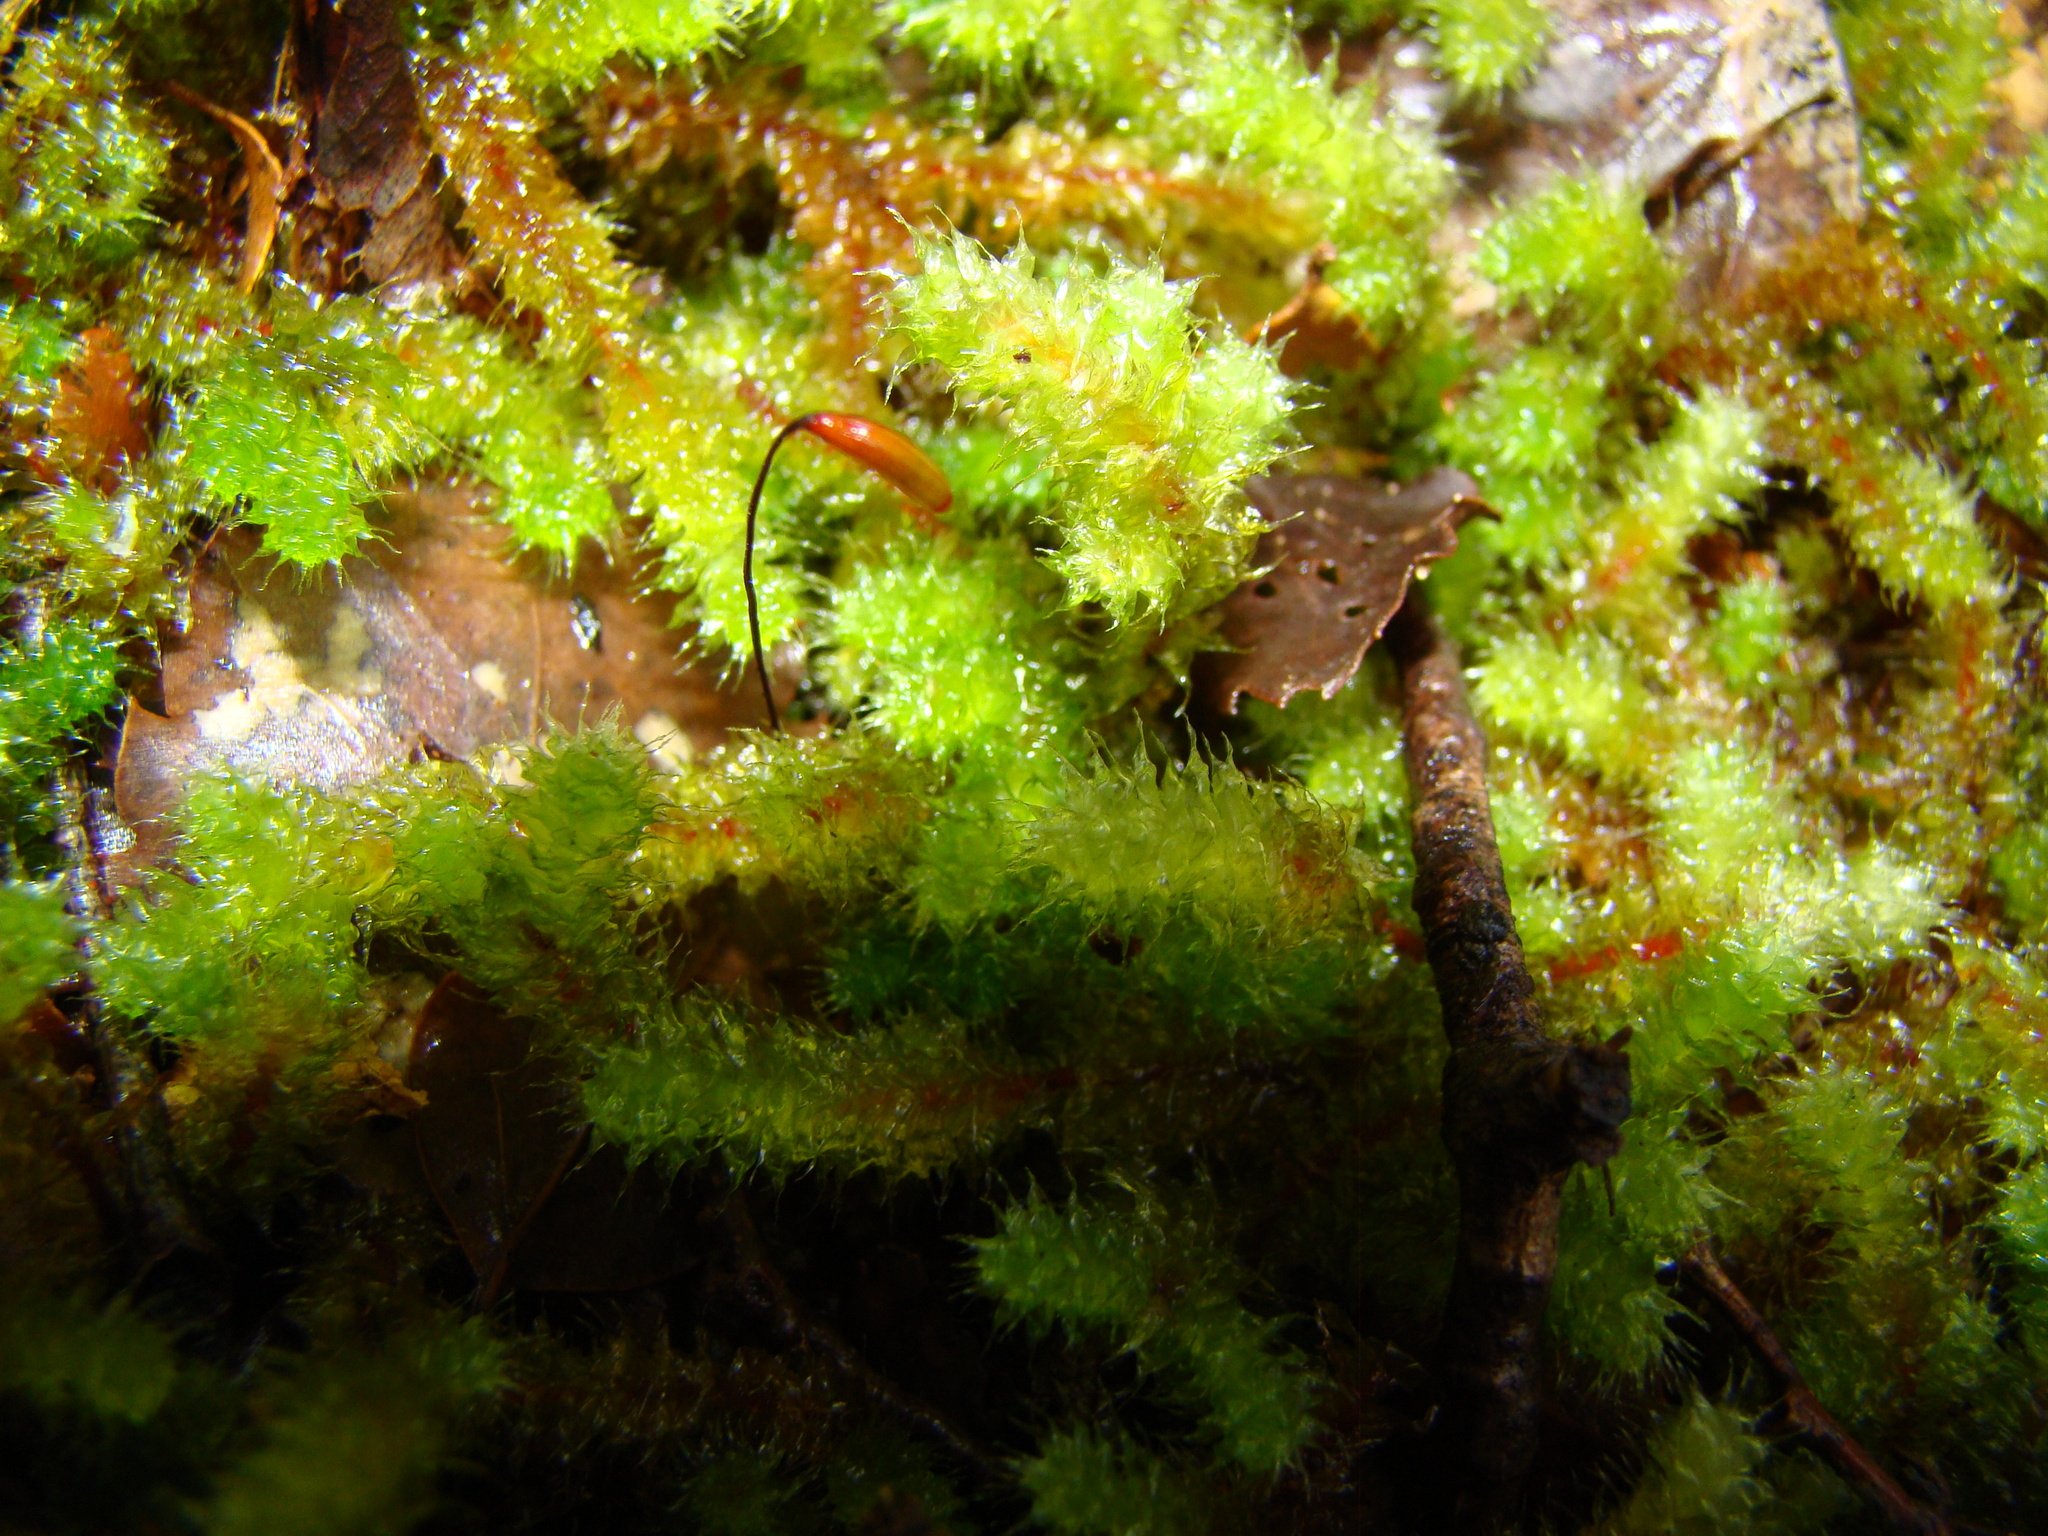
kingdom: Plantae
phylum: Bryophyta
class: Bryopsida
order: Ptychomniales
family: Ptychomniaceae
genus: Ptychomnion
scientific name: Ptychomnion aciculare
